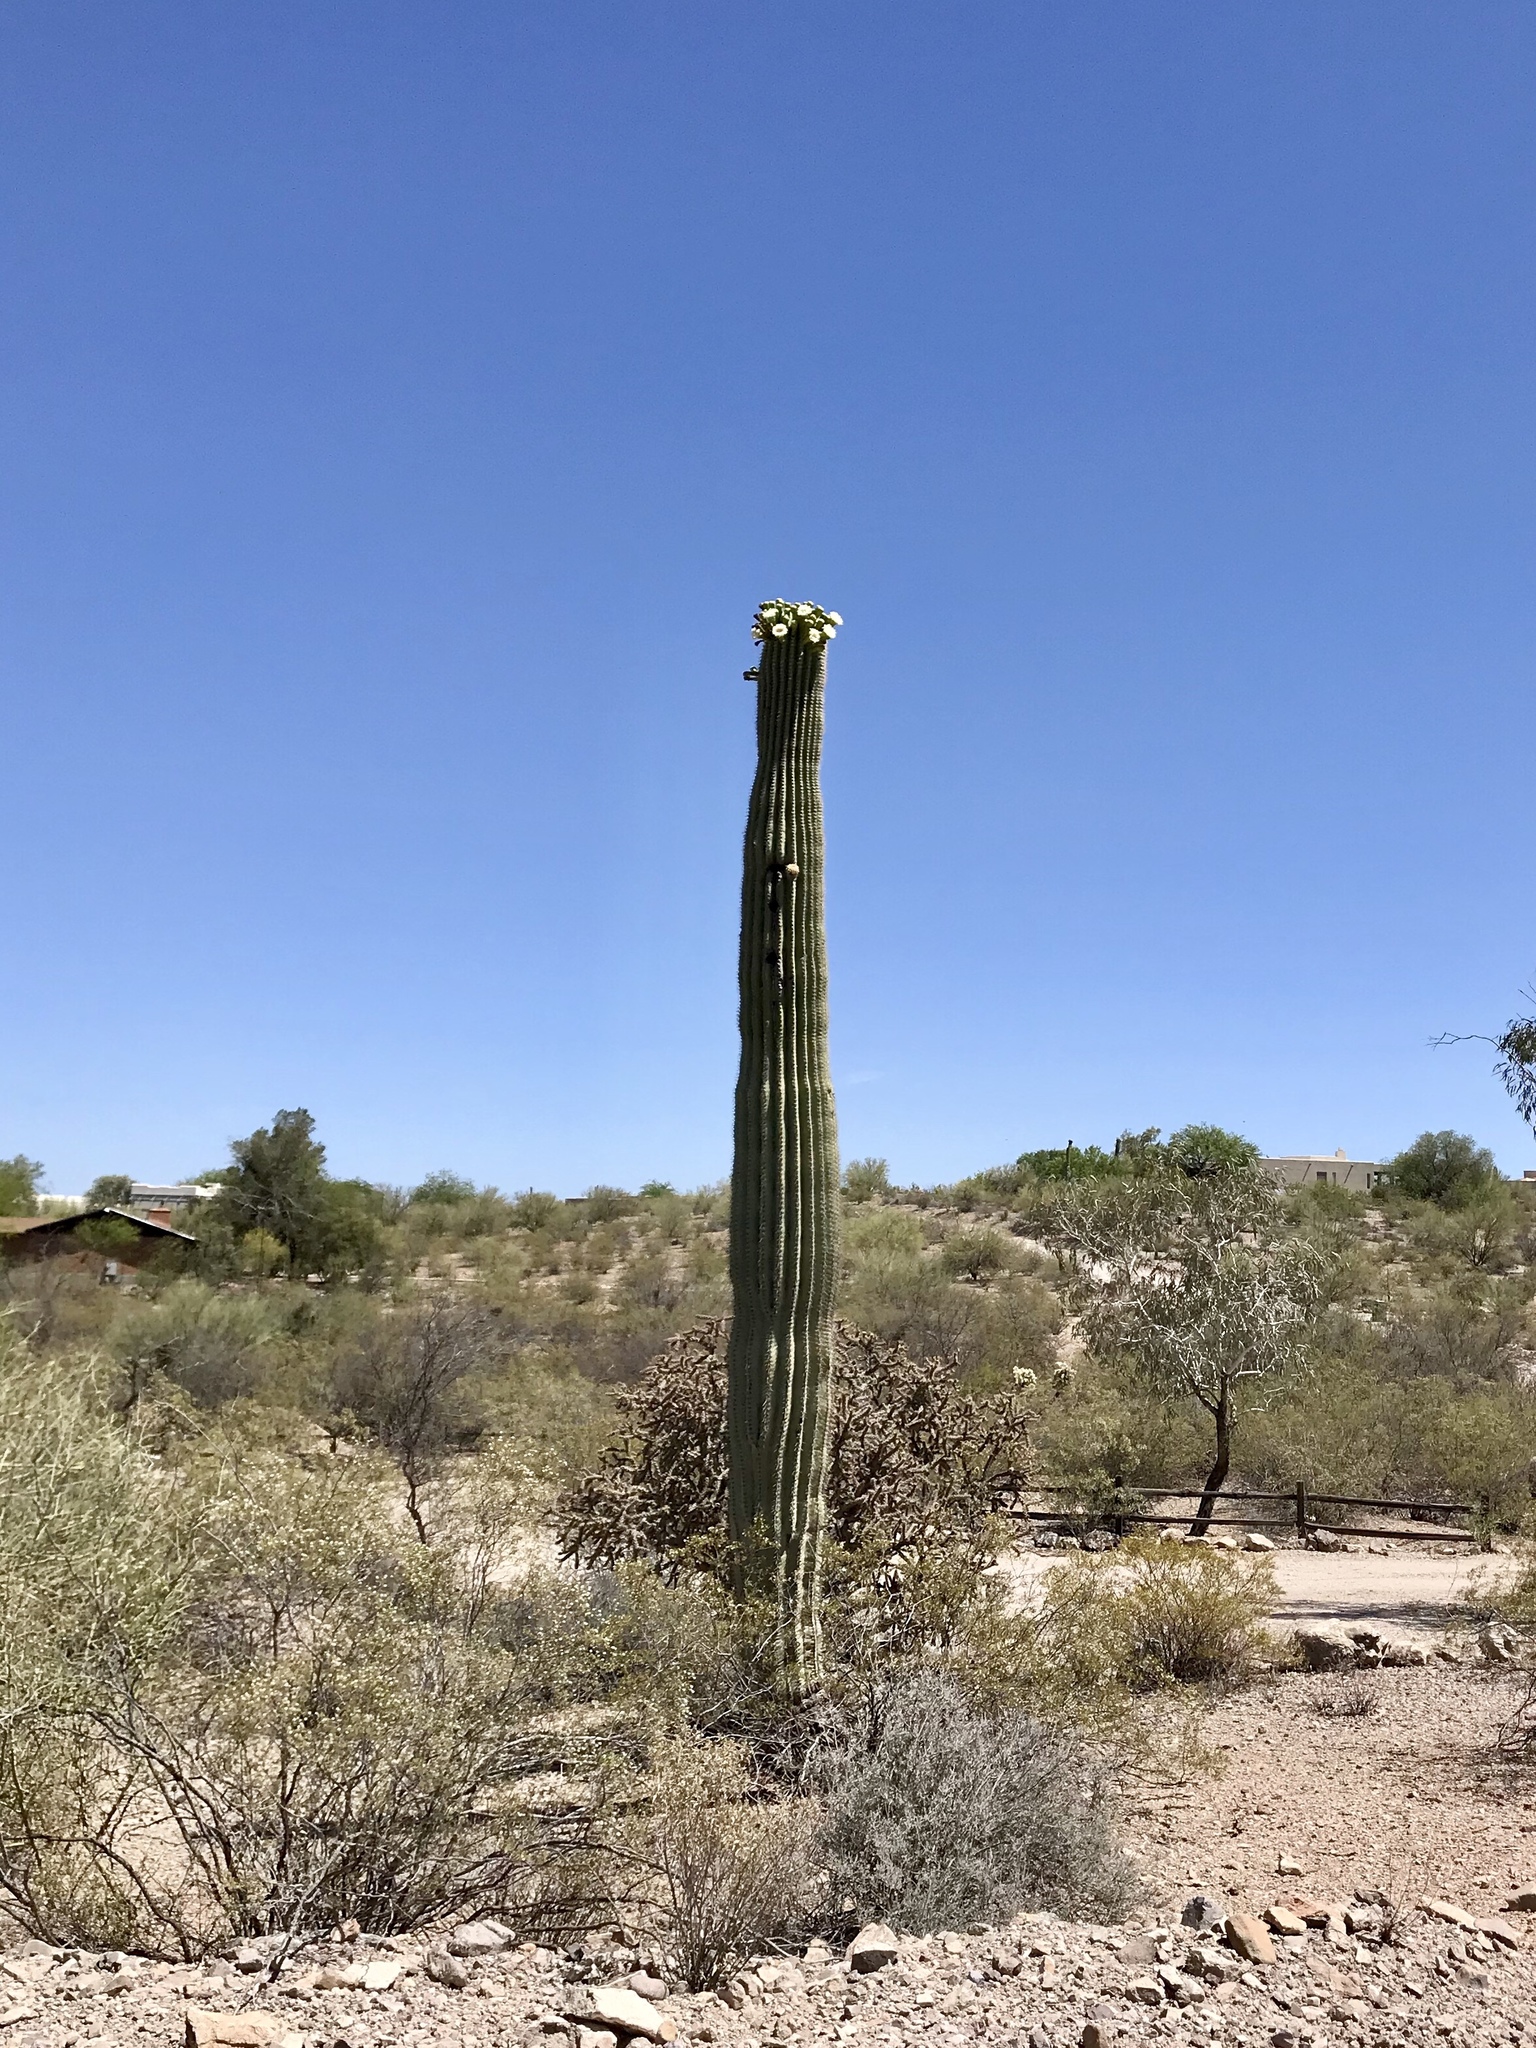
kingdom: Plantae
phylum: Tracheophyta
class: Magnoliopsida
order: Caryophyllales
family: Cactaceae
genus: Carnegiea
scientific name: Carnegiea gigantea
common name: Saguaro
